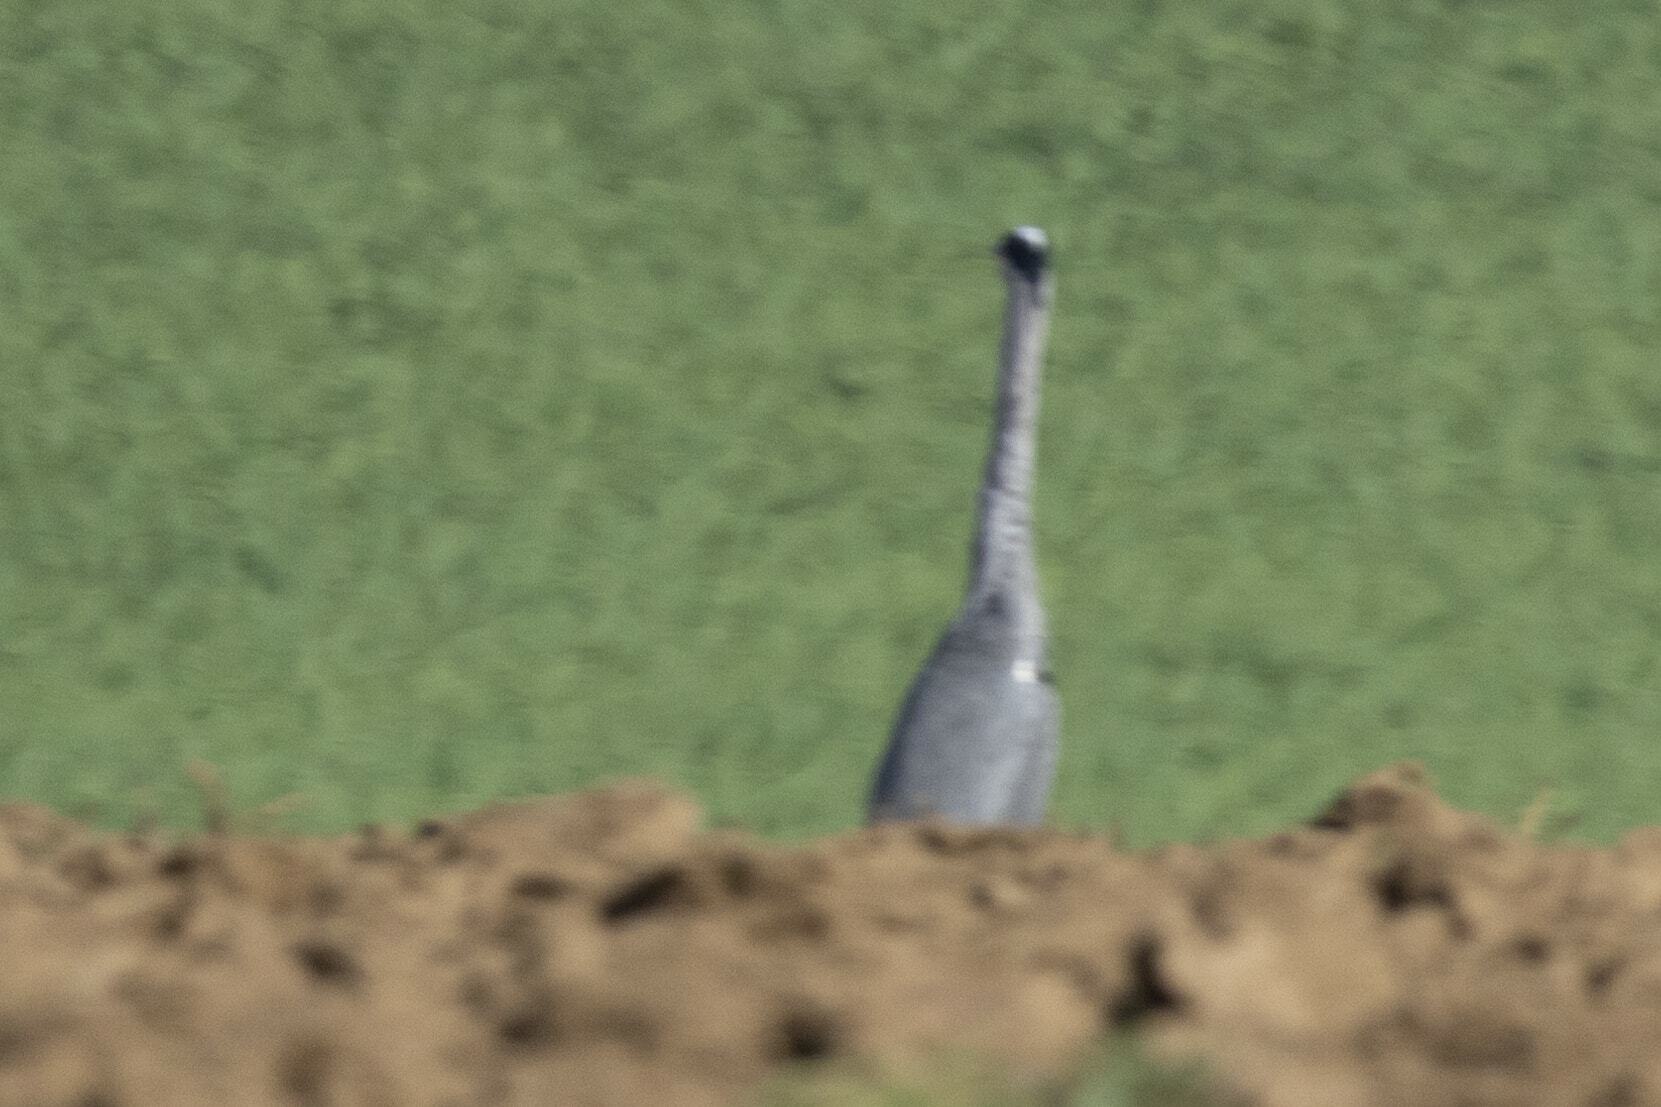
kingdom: Animalia
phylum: Chordata
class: Aves
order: Pelecaniformes
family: Ardeidae
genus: Ardea
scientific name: Ardea cinerea
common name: Grey heron
